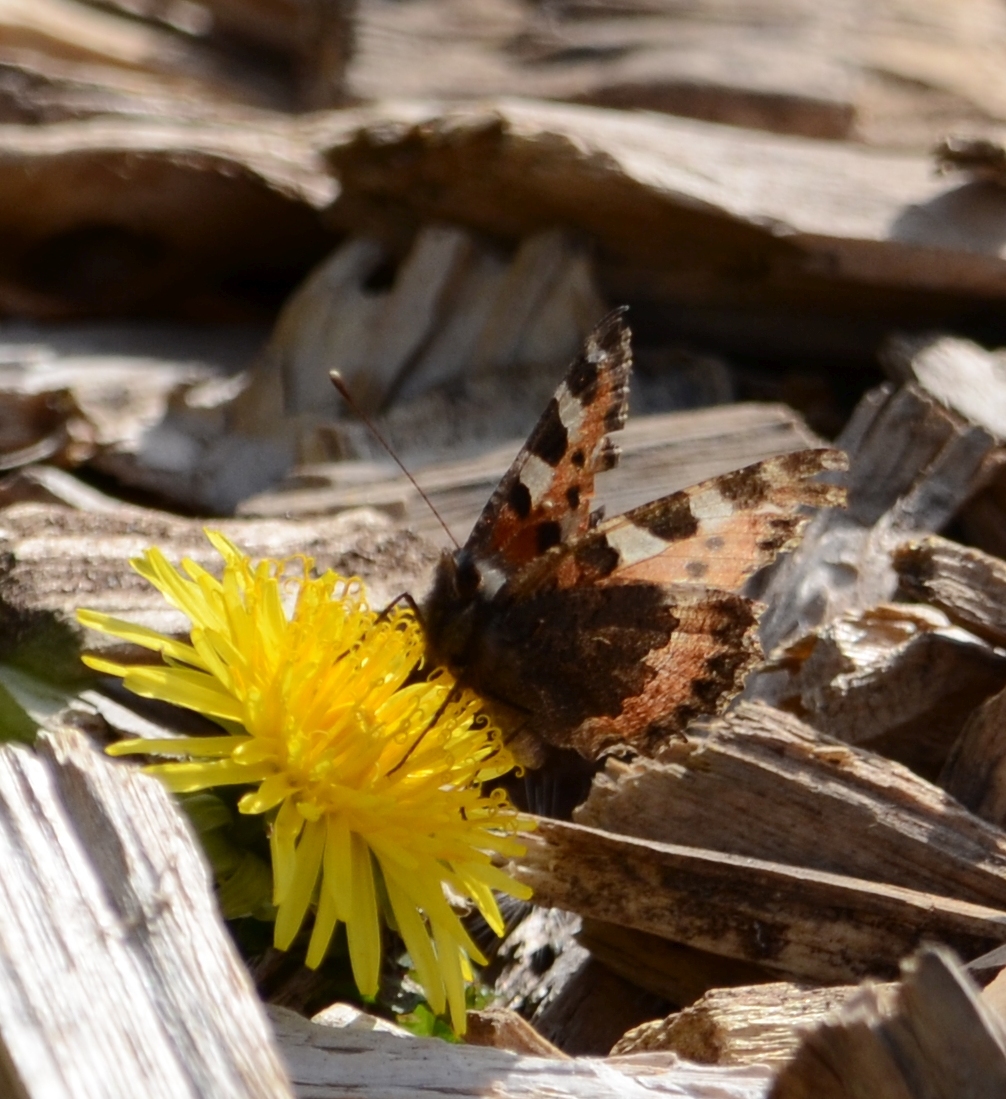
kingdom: Animalia
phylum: Arthropoda
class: Insecta
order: Lepidoptera
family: Nymphalidae
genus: Aglais
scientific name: Aglais urticae
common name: Small tortoiseshell
